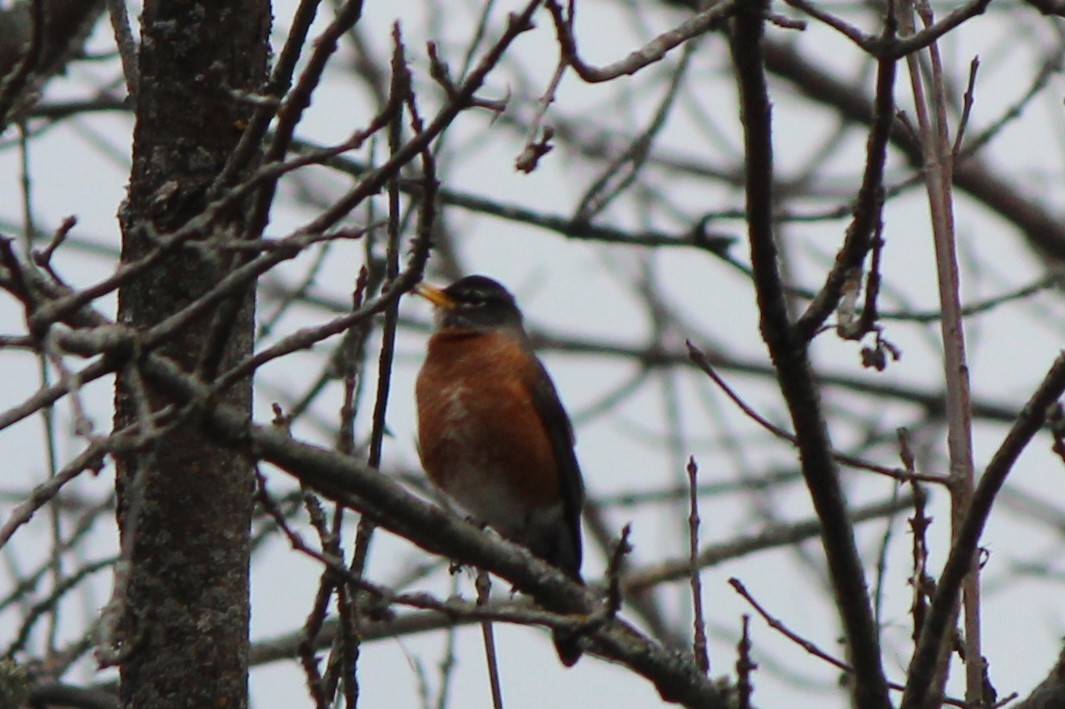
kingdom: Animalia
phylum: Chordata
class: Aves
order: Passeriformes
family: Turdidae
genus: Turdus
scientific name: Turdus migratorius
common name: American robin
